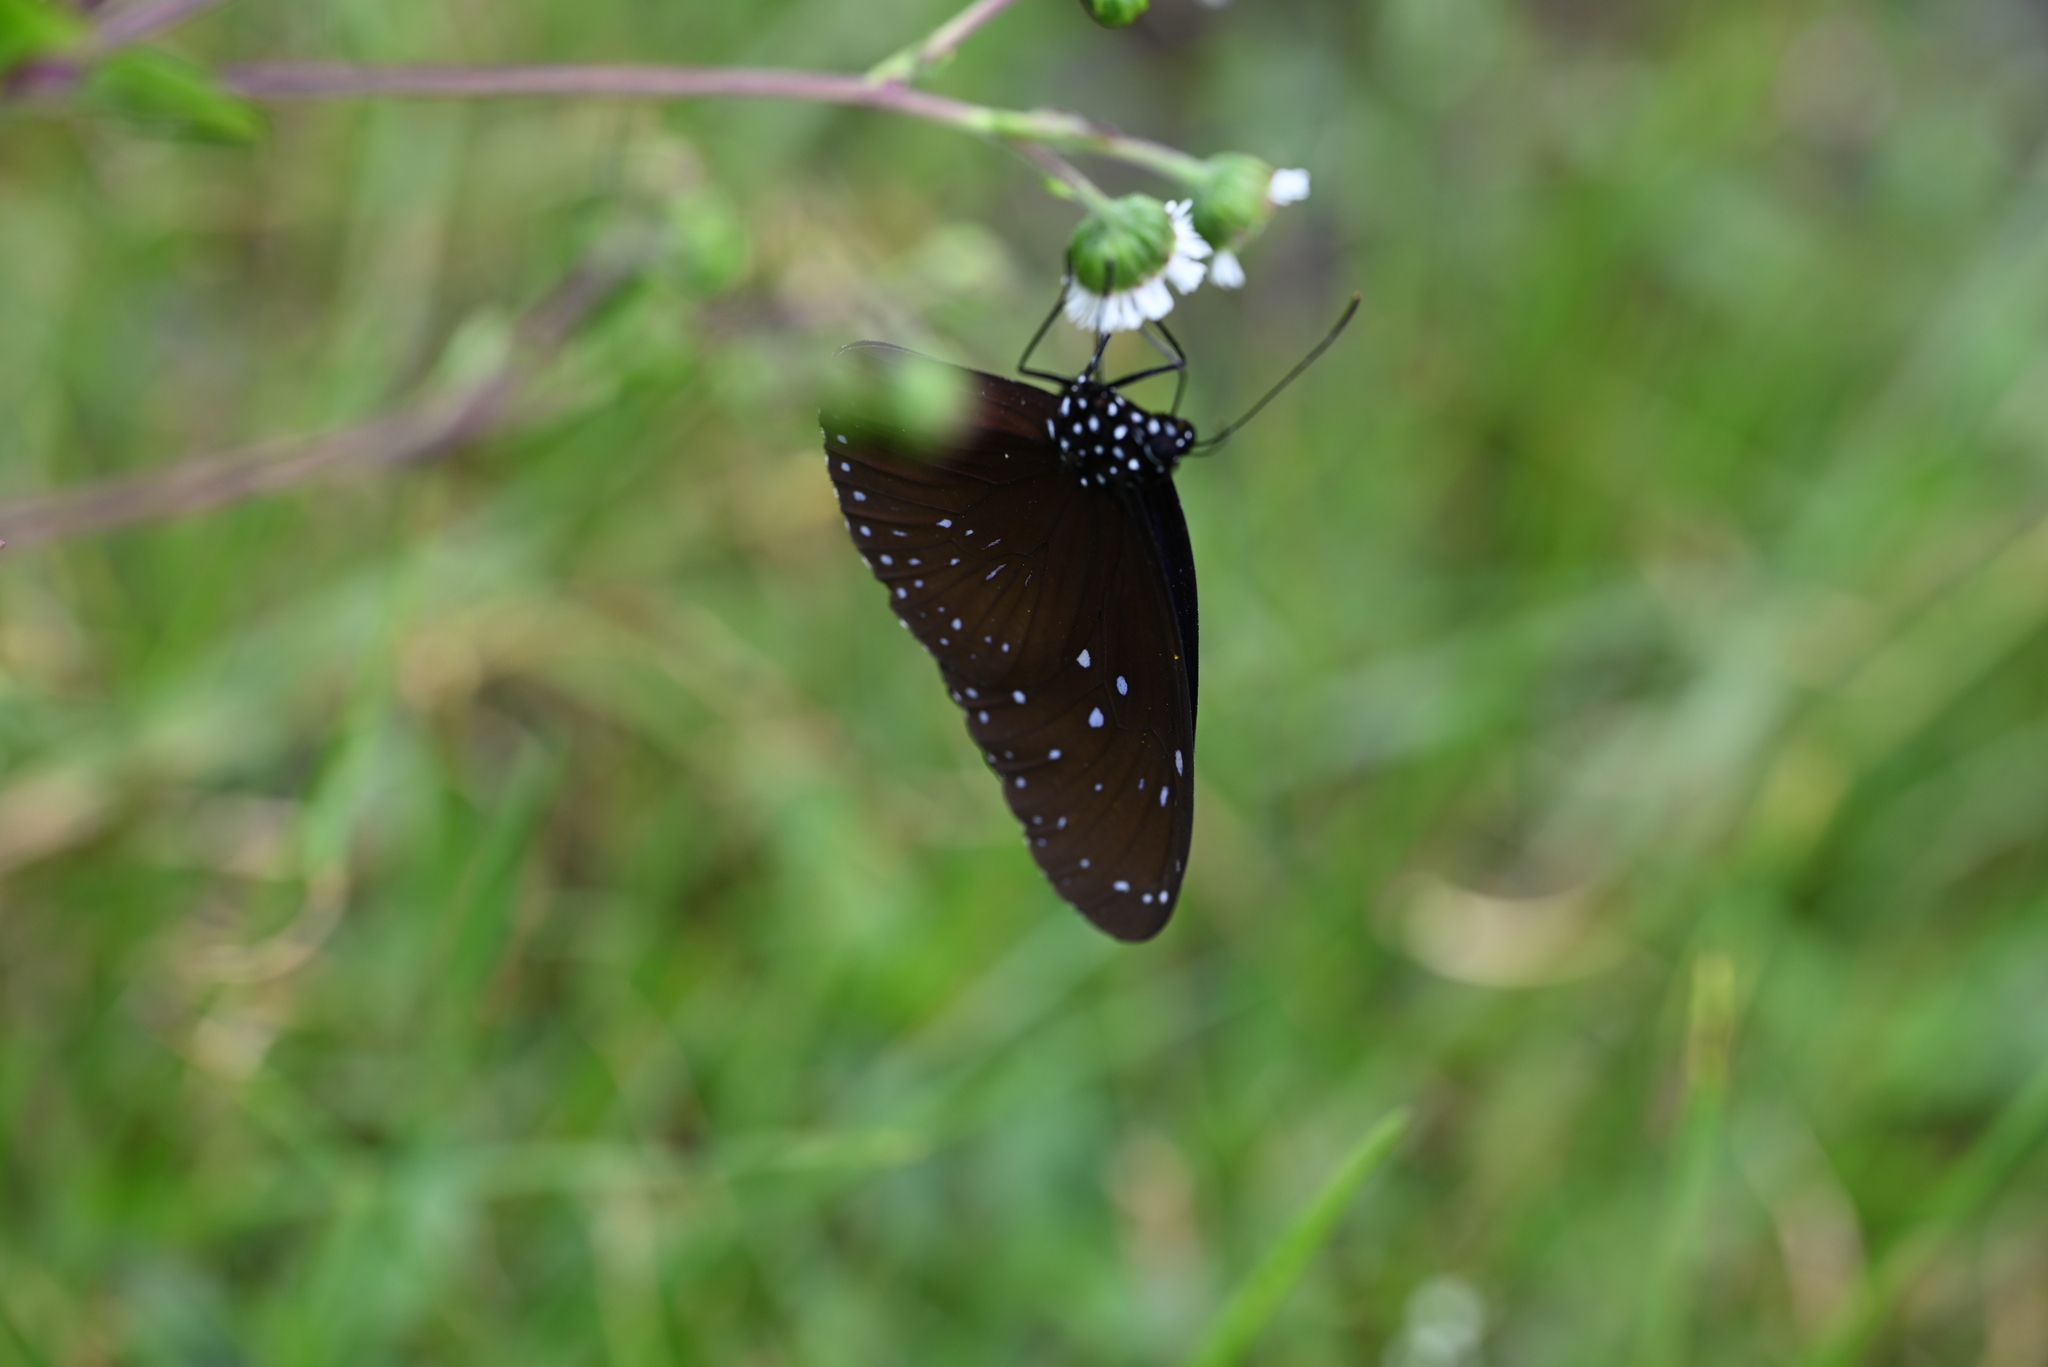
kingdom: Animalia
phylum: Arthropoda
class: Insecta
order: Lepidoptera
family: Nymphalidae
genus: Euploea
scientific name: Euploea mulciber
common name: Striped blue crow butterfly
